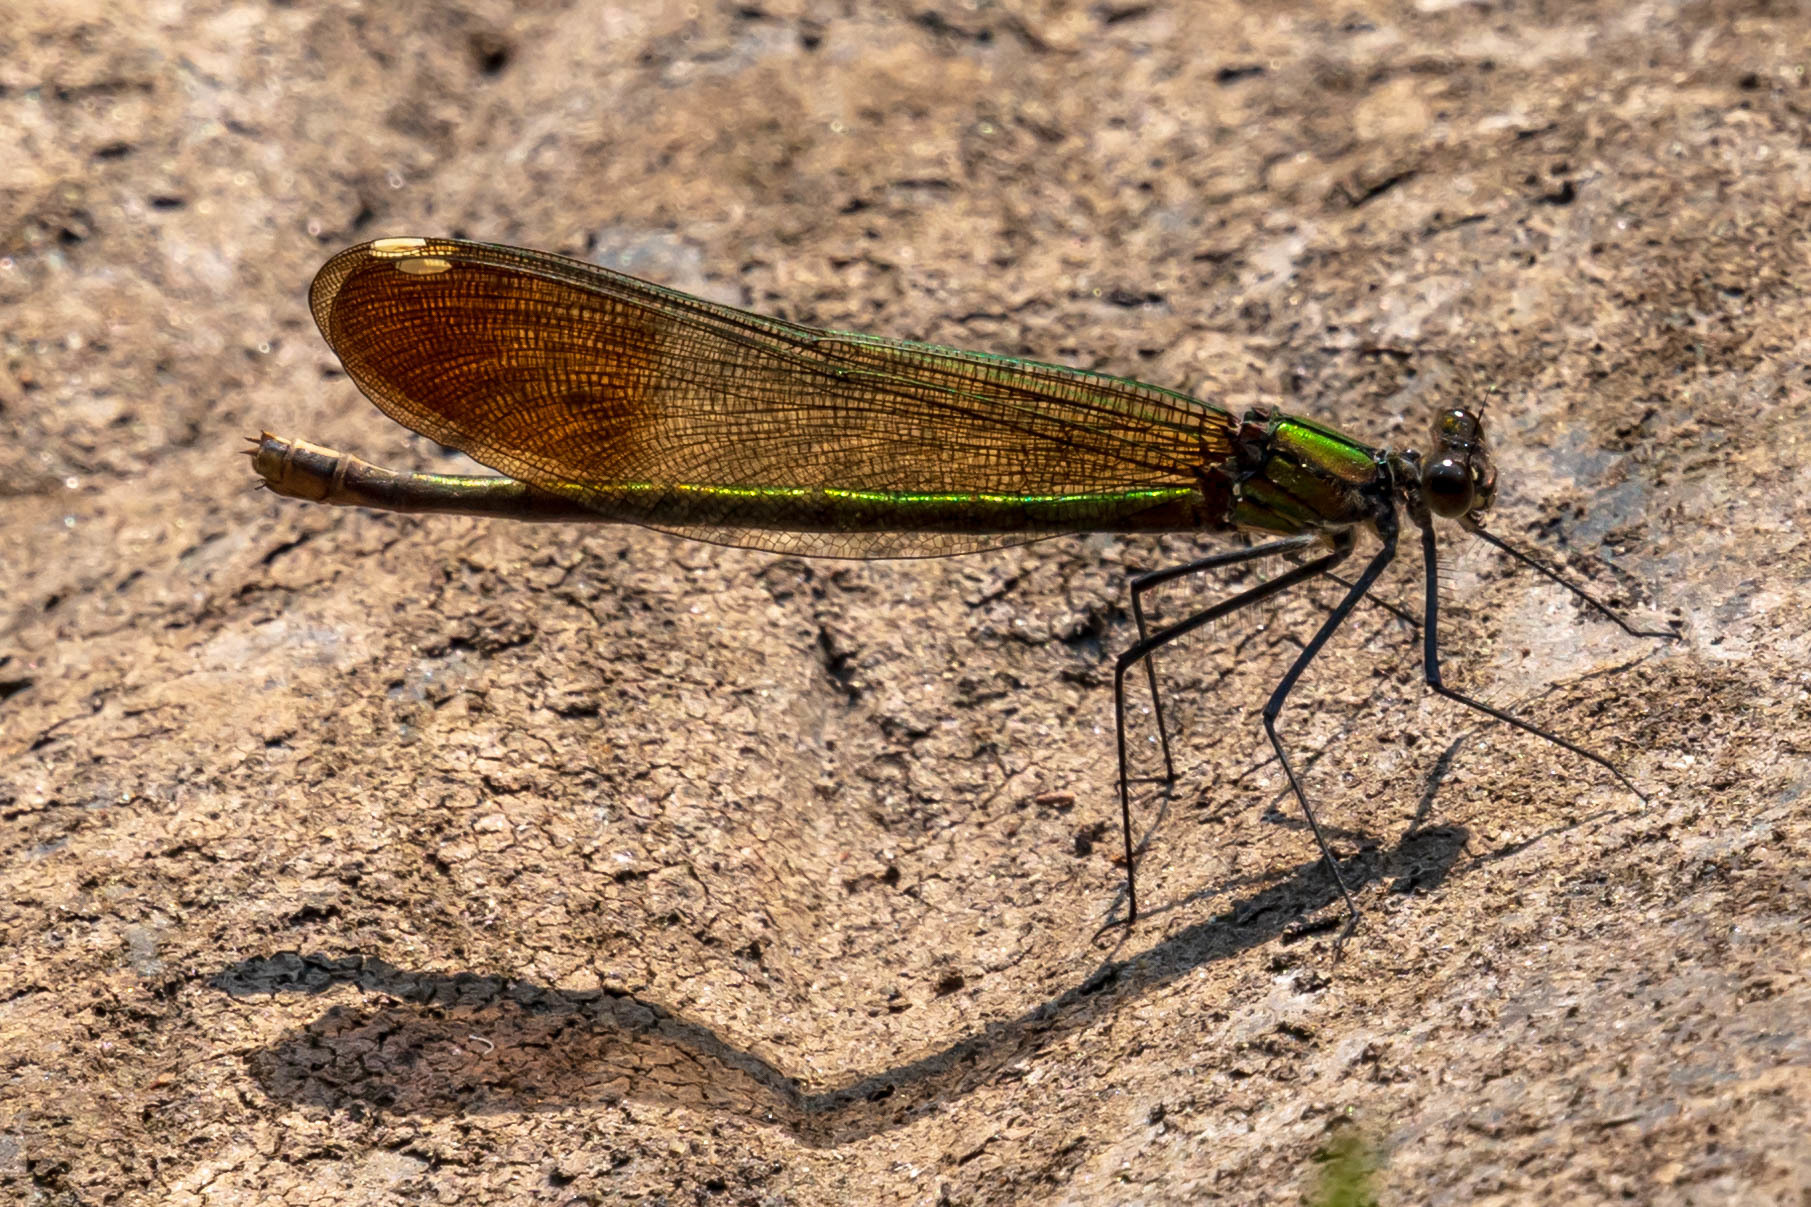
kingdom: Animalia
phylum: Arthropoda
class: Insecta
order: Odonata
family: Calopterygidae
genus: Calopteryx
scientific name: Calopteryx aequabilis
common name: River jewelwing
